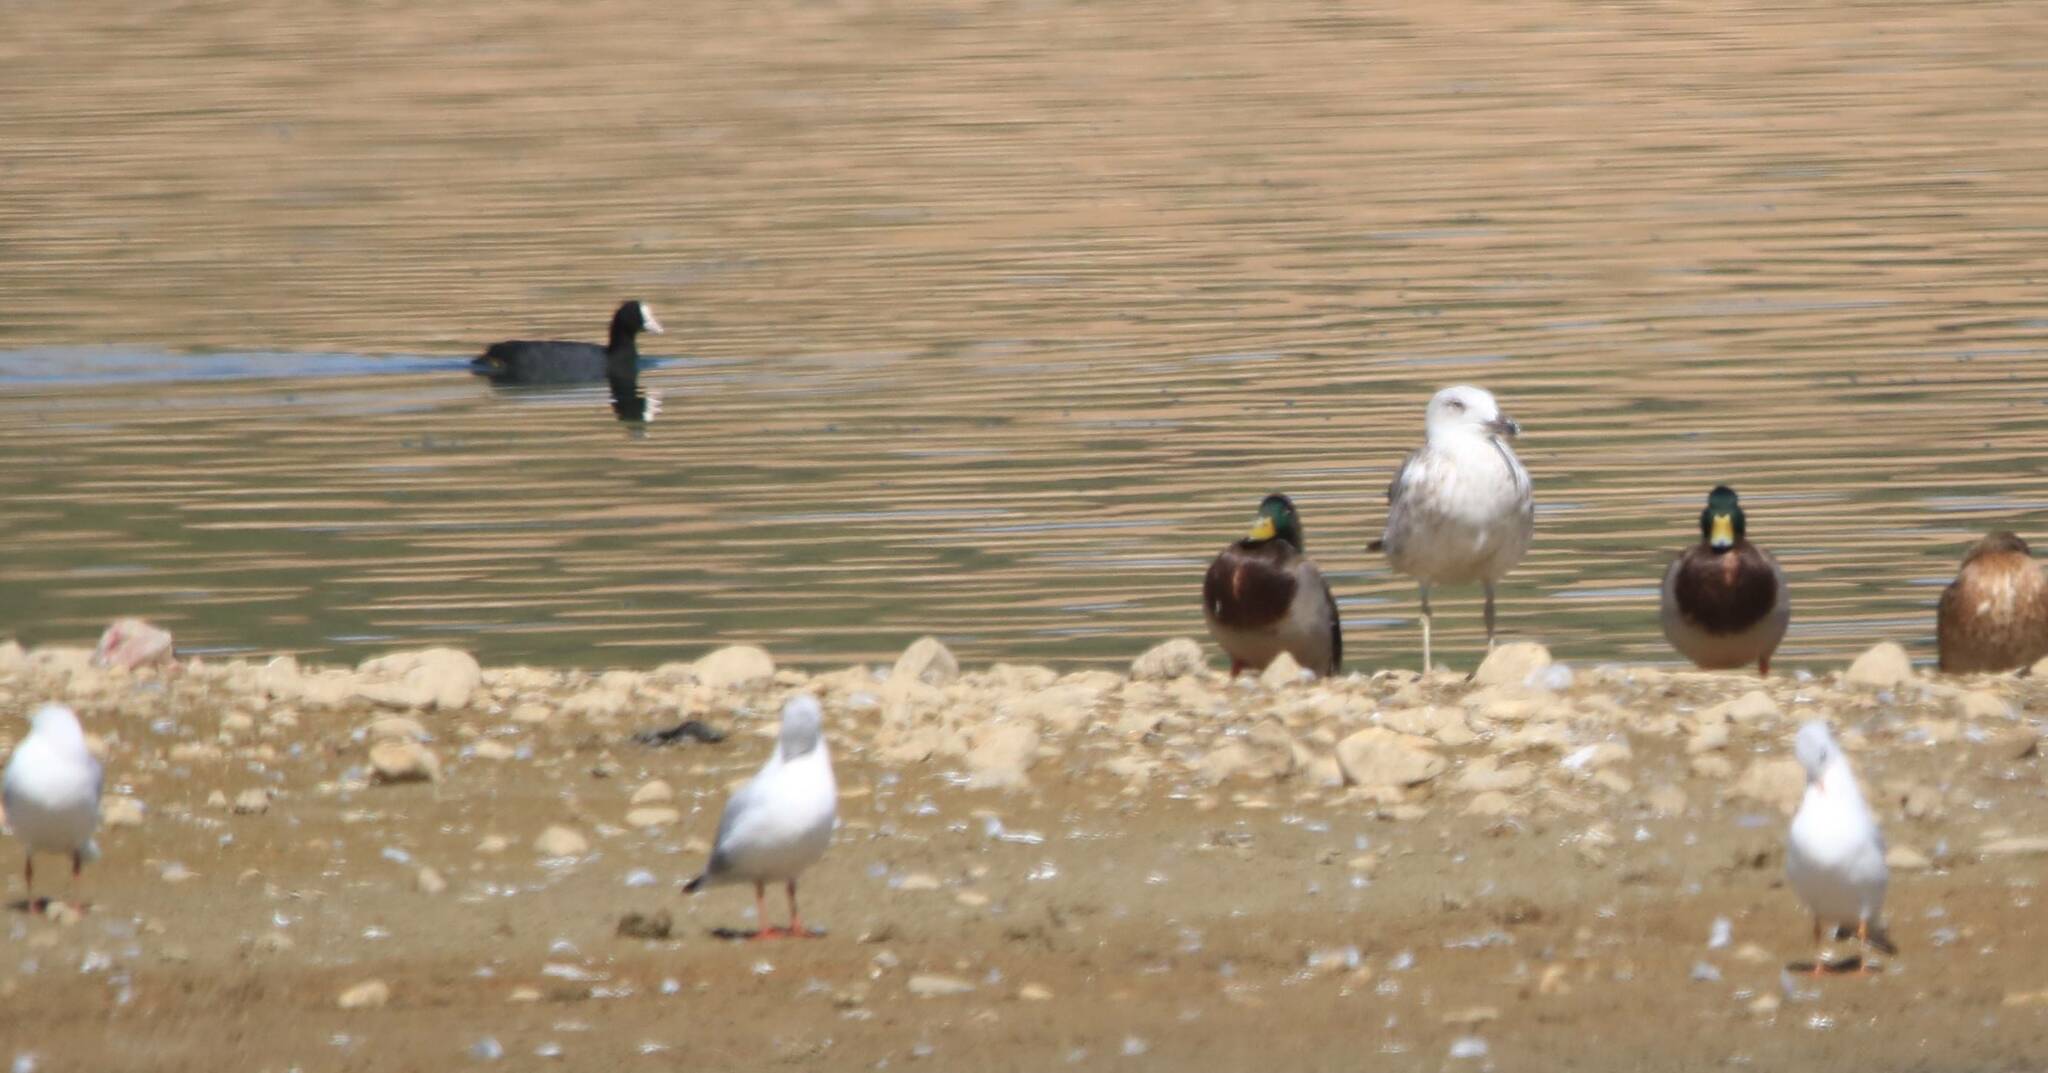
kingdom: Animalia
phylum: Chordata
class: Aves
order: Gruiformes
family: Rallidae
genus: Fulica
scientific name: Fulica atra
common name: Eurasian coot
